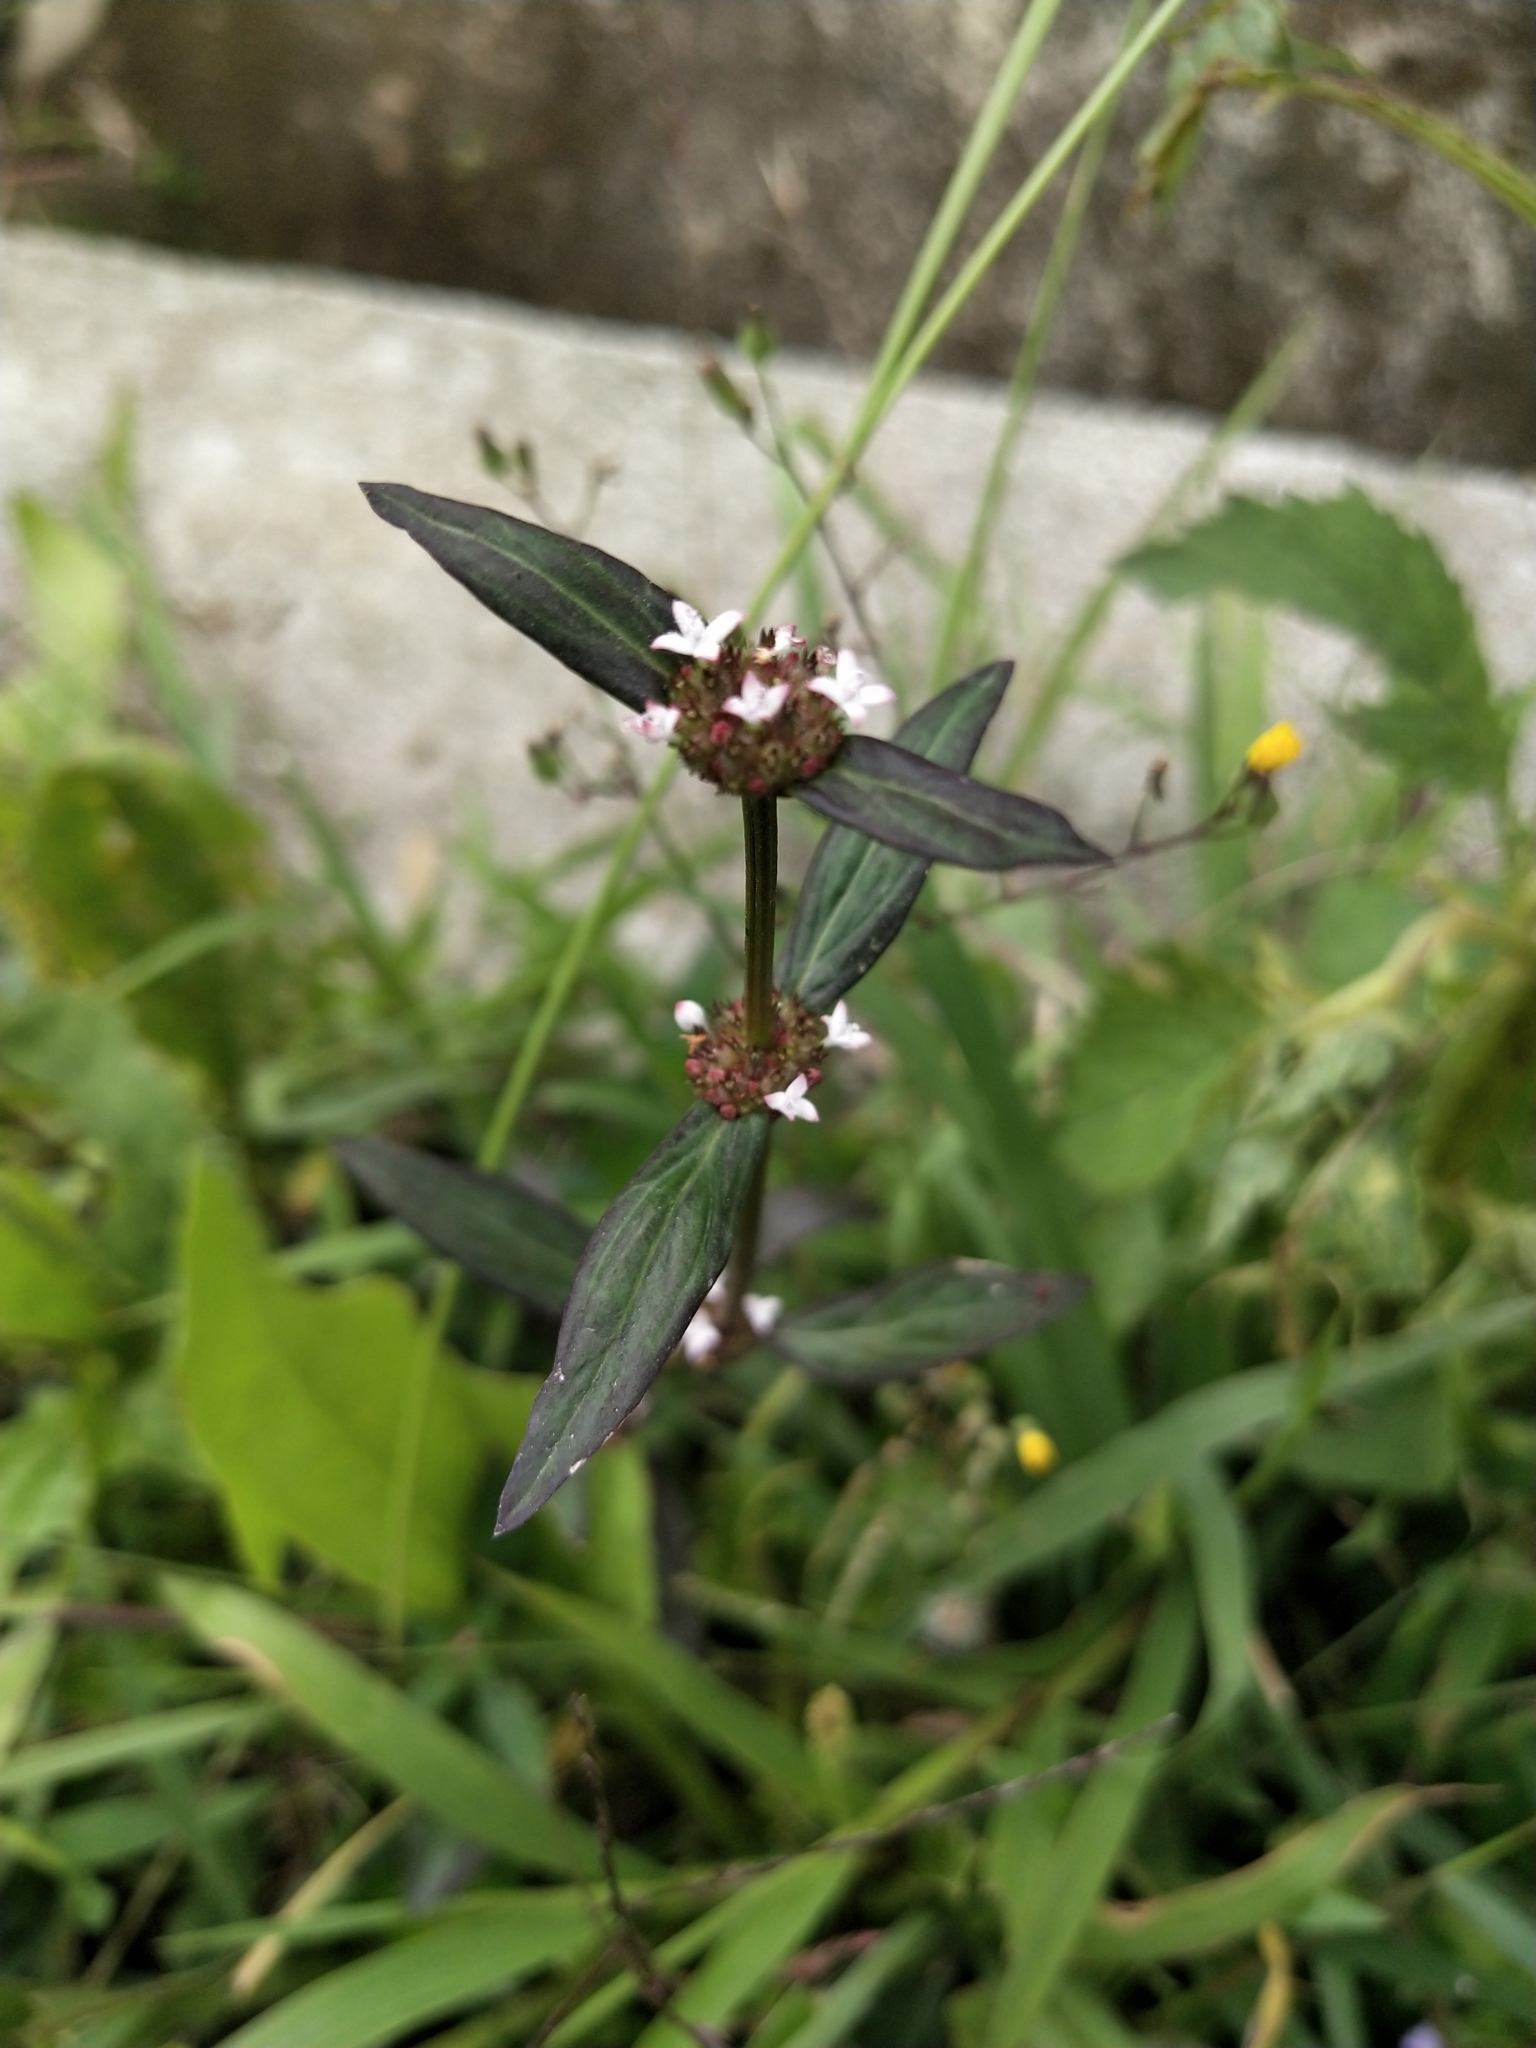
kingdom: Plantae
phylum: Tracheophyta
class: Magnoliopsida
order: Gentianales
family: Rubiaceae
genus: Spermacoce
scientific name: Spermacoce remota
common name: Woodland false buttonweed
